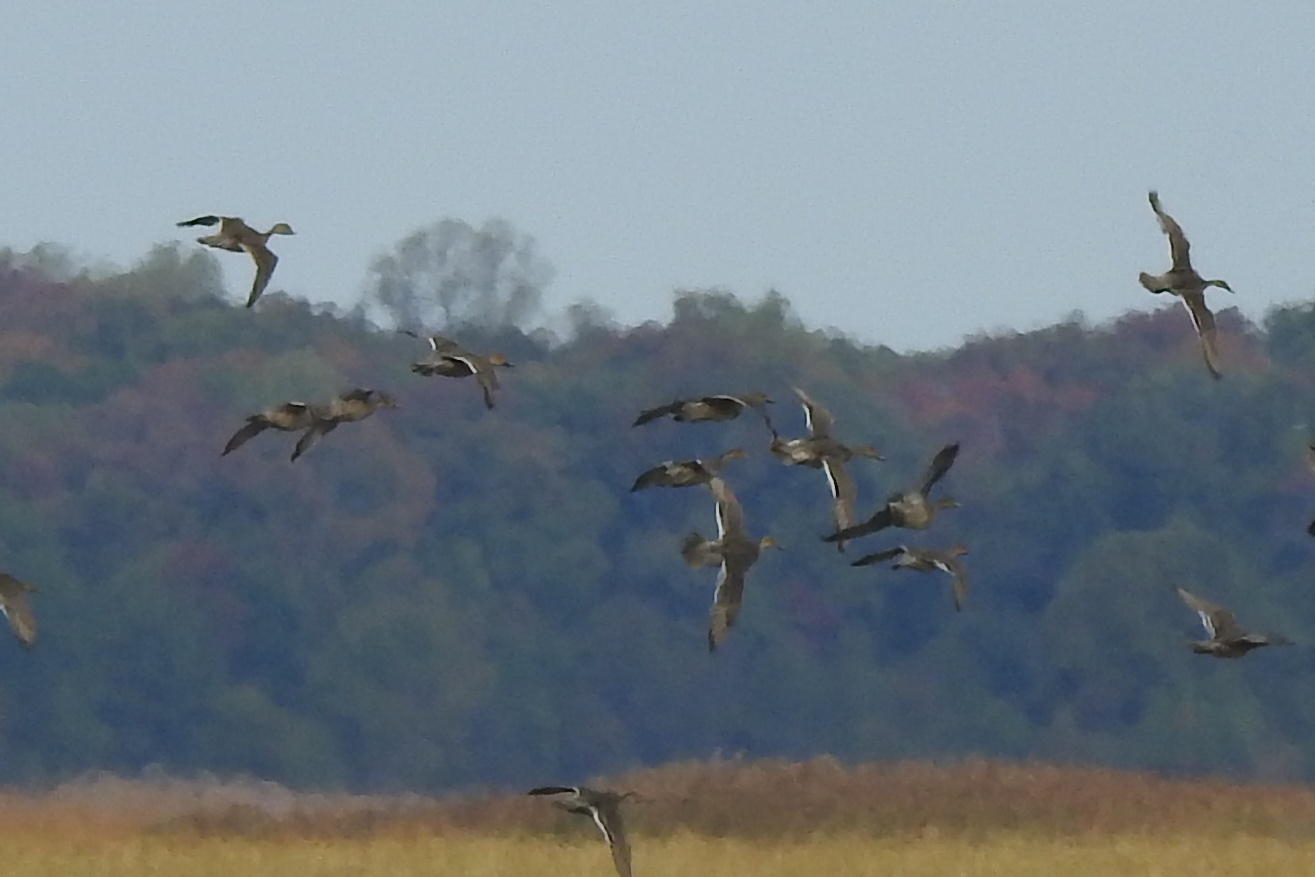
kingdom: Animalia
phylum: Chordata
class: Aves
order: Anseriformes
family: Anatidae
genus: Anas
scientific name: Anas acuta
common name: Northern pintail
